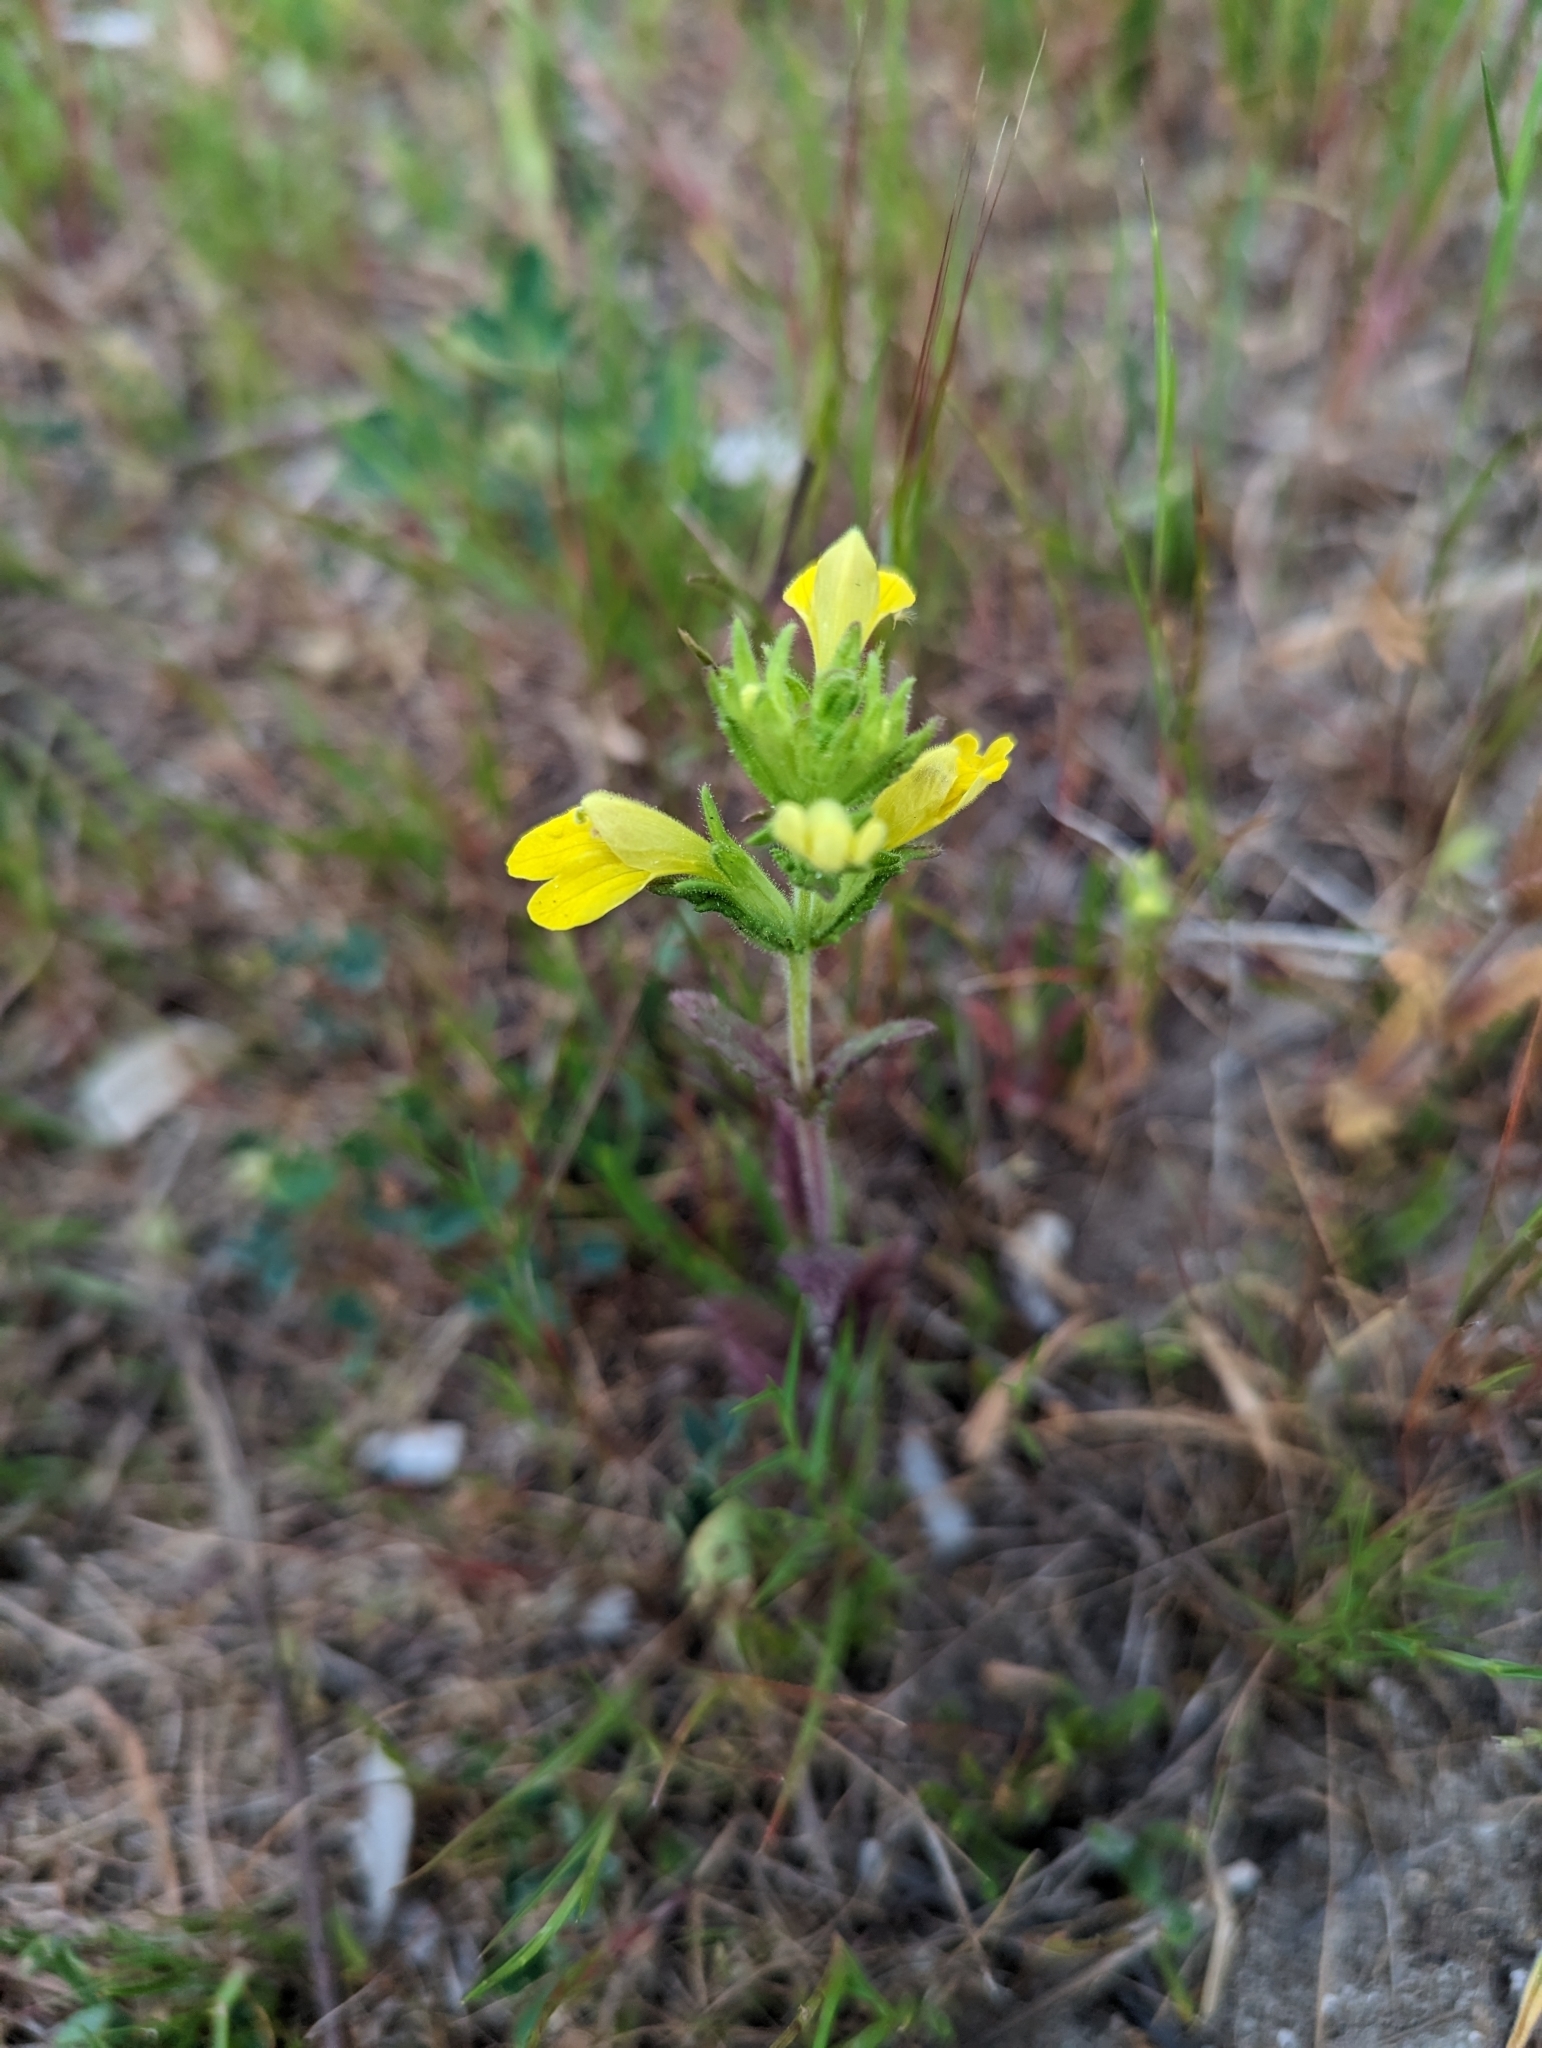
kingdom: Plantae
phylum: Tracheophyta
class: Magnoliopsida
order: Lamiales
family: Orobanchaceae
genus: Bellardia
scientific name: Bellardia viscosa
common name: Sticky parentucellia
